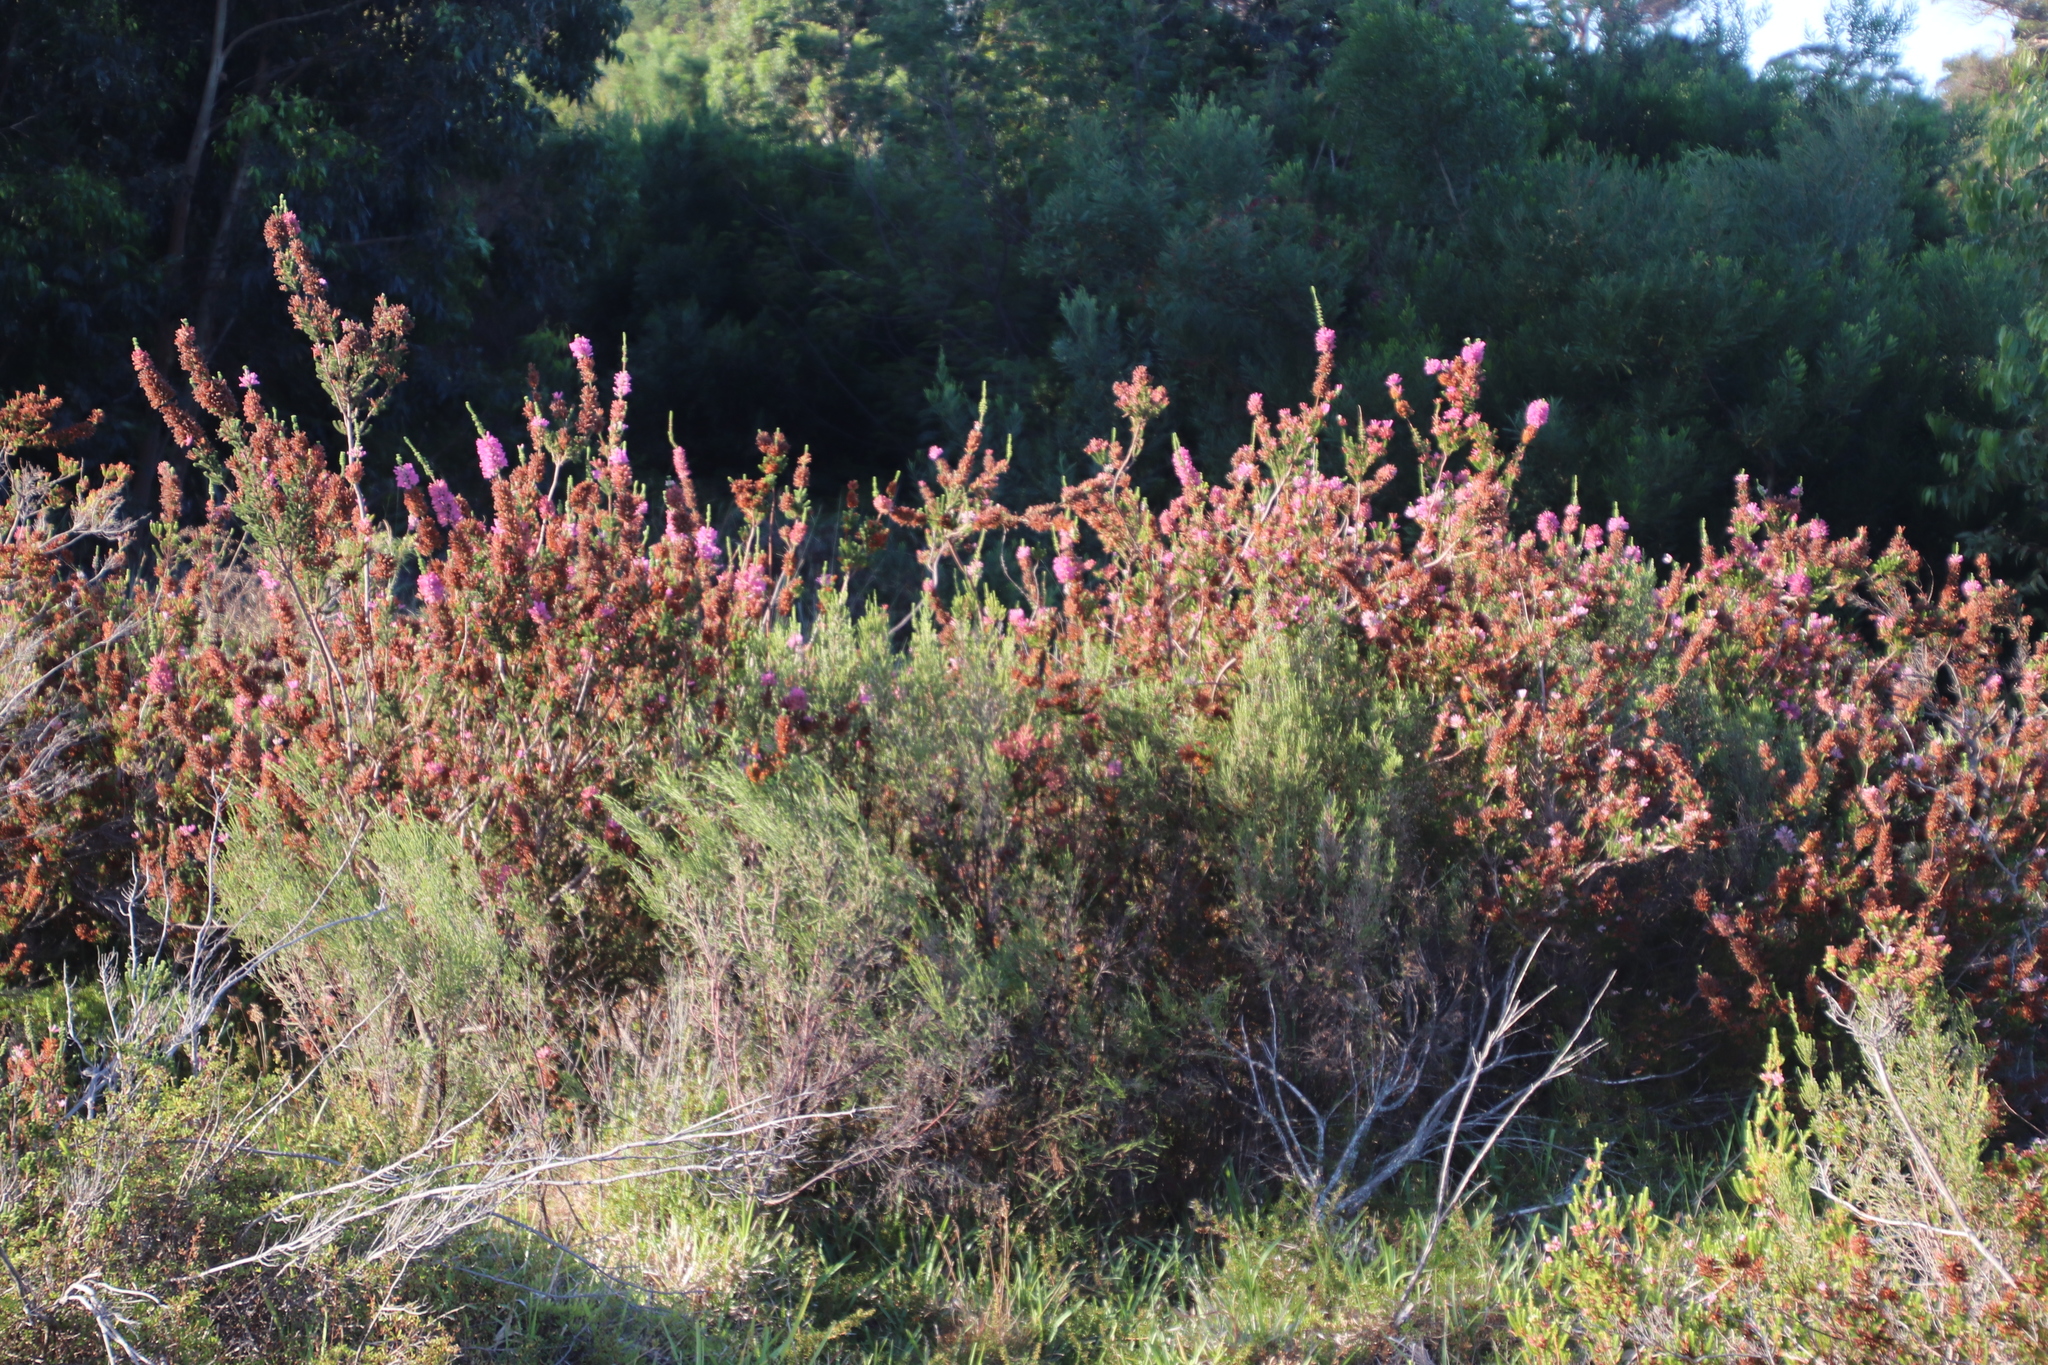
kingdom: Plantae
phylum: Tracheophyta
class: Magnoliopsida
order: Ericales
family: Ericaceae
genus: Erica
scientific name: Erica verticillata
